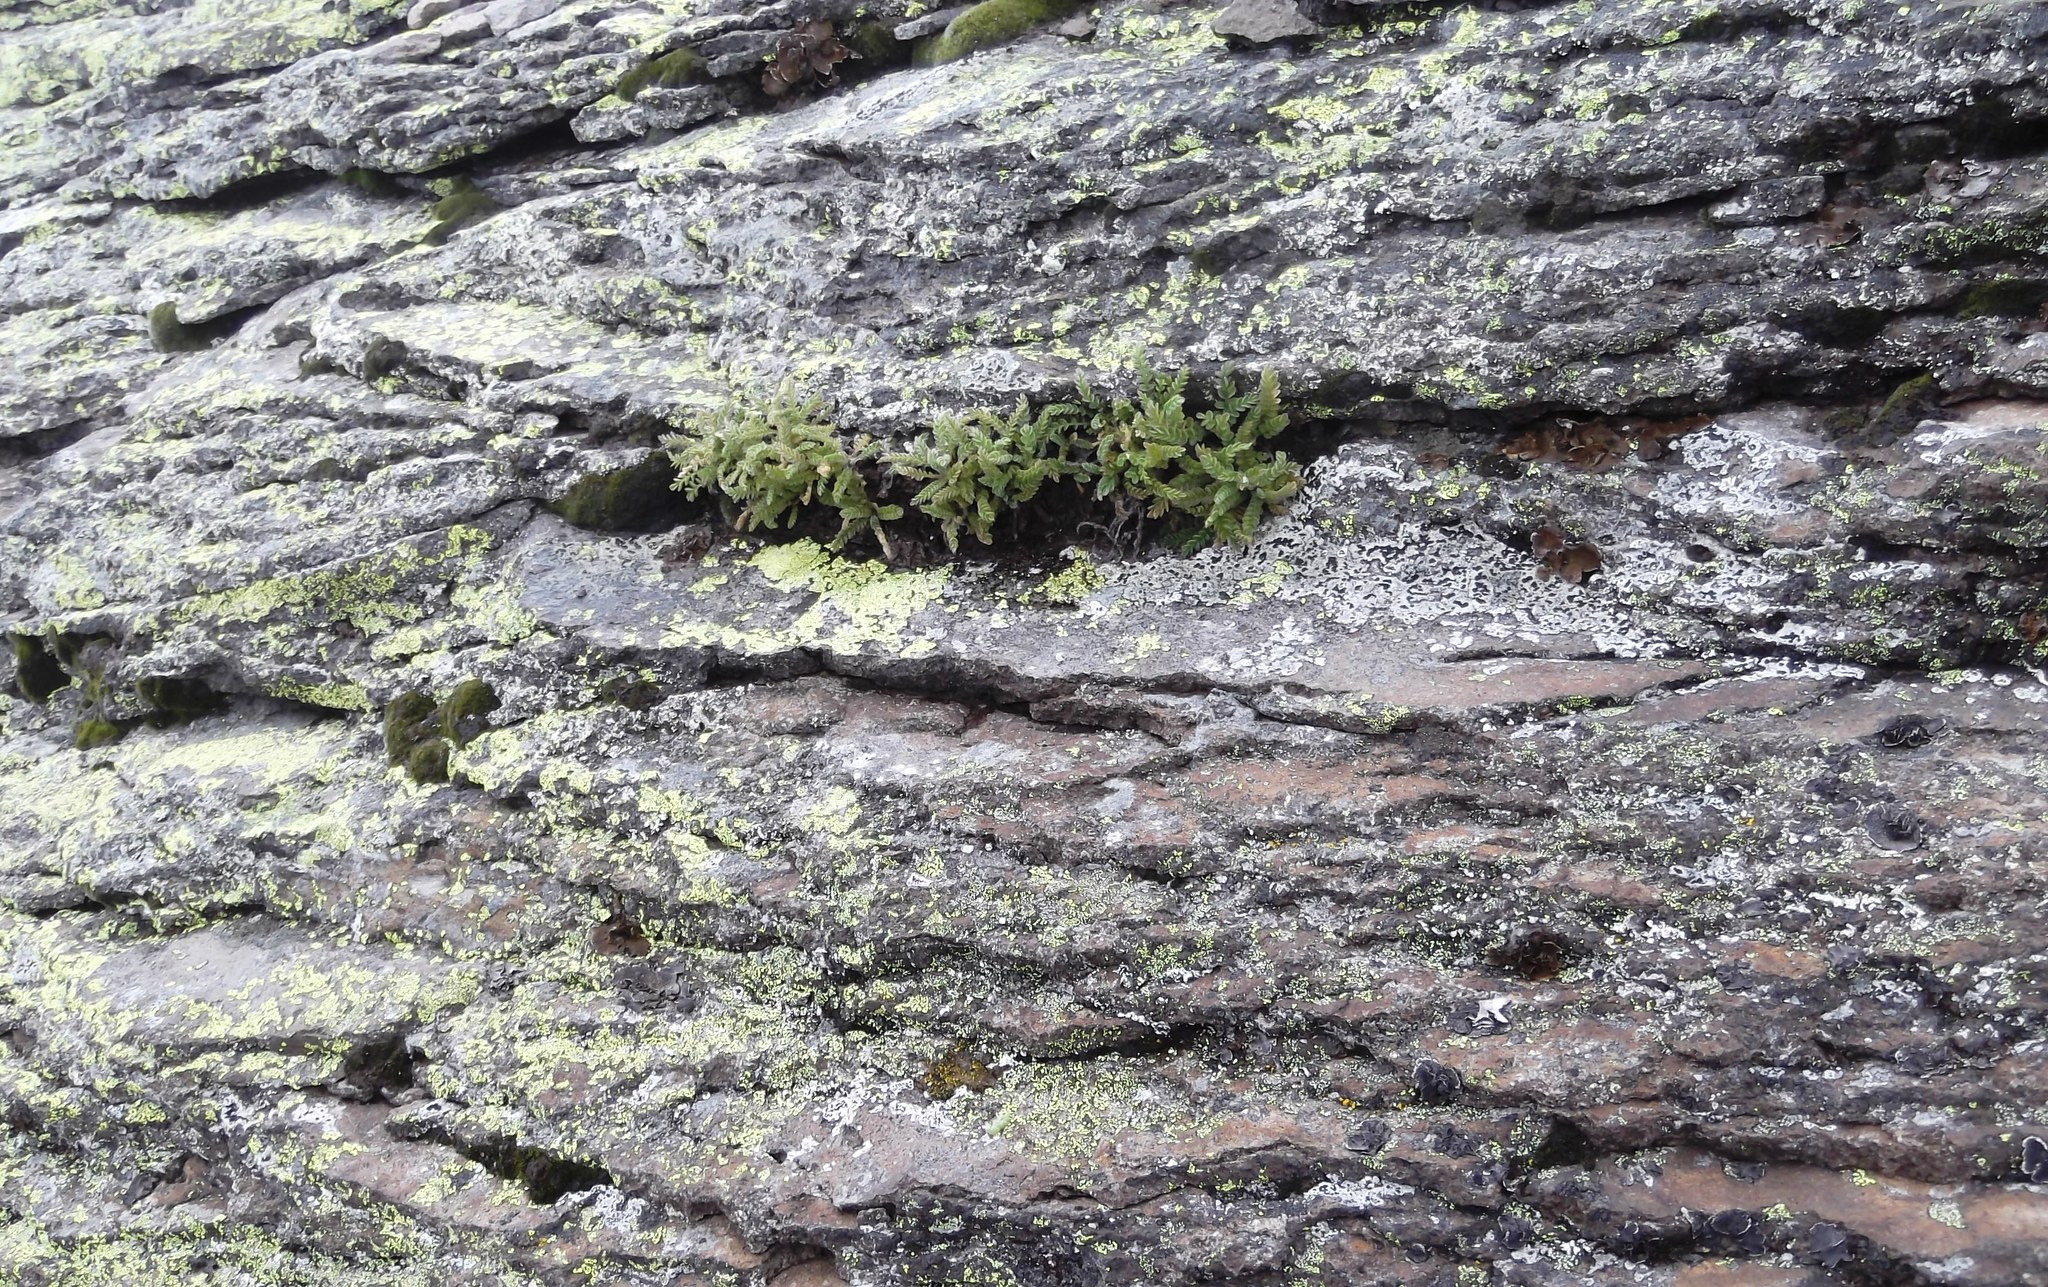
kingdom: Plantae
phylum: Tracheophyta
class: Magnoliopsida
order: Ericales
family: Polemoniaceae
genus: Polemonium
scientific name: Polemonium elegans
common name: Elegant jacob's-ladder
